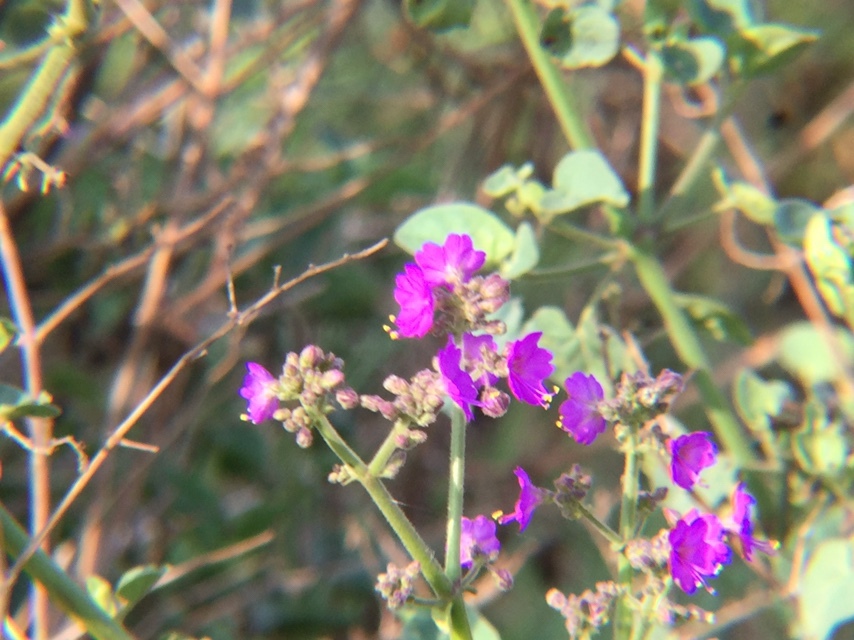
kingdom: Plantae
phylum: Tracheophyta
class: Magnoliopsida
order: Caryophyllales
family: Nyctaginaceae
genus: Mirabilis
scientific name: Mirabilis viscosa
